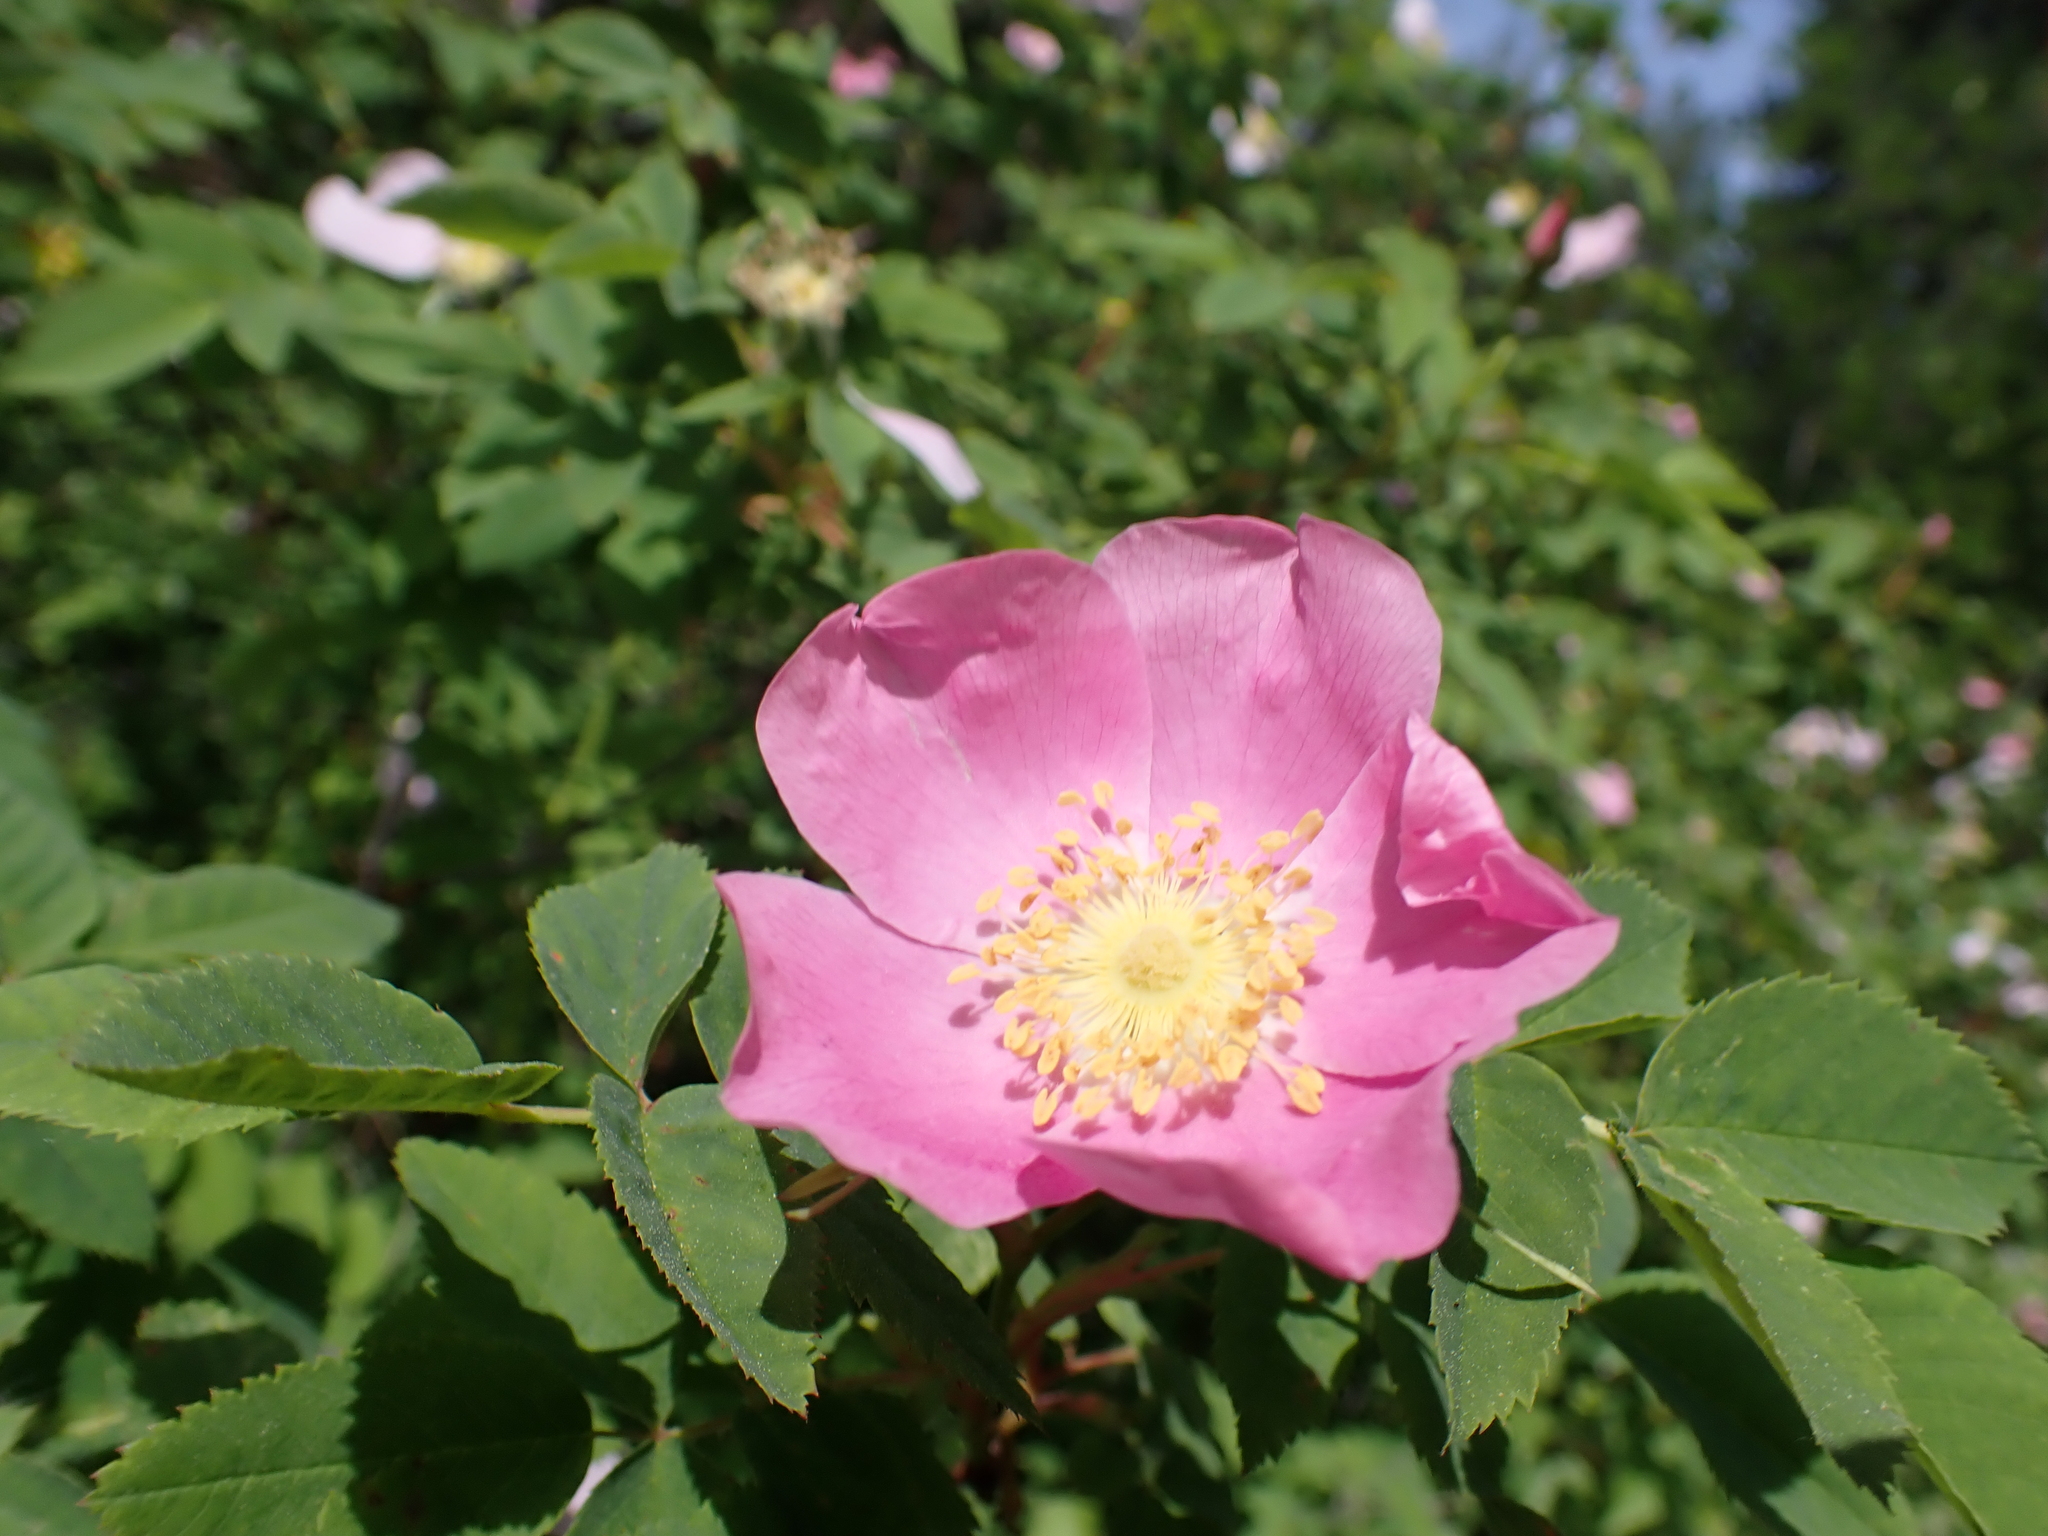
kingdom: Plantae
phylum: Tracheophyta
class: Magnoliopsida
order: Rosales
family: Rosaceae
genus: Rosa
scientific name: Rosa nutkana
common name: Nootka rose
